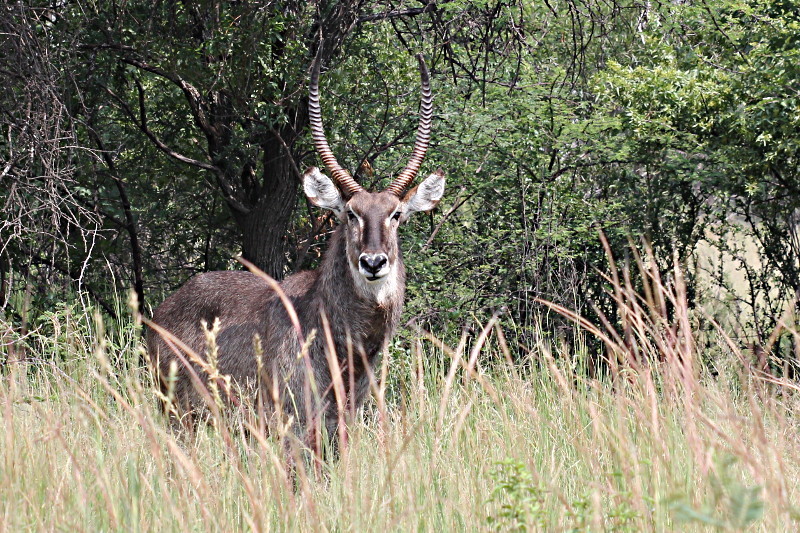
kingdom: Animalia
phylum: Chordata
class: Mammalia
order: Artiodactyla
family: Bovidae
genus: Kobus
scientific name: Kobus ellipsiprymnus
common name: Waterbuck
